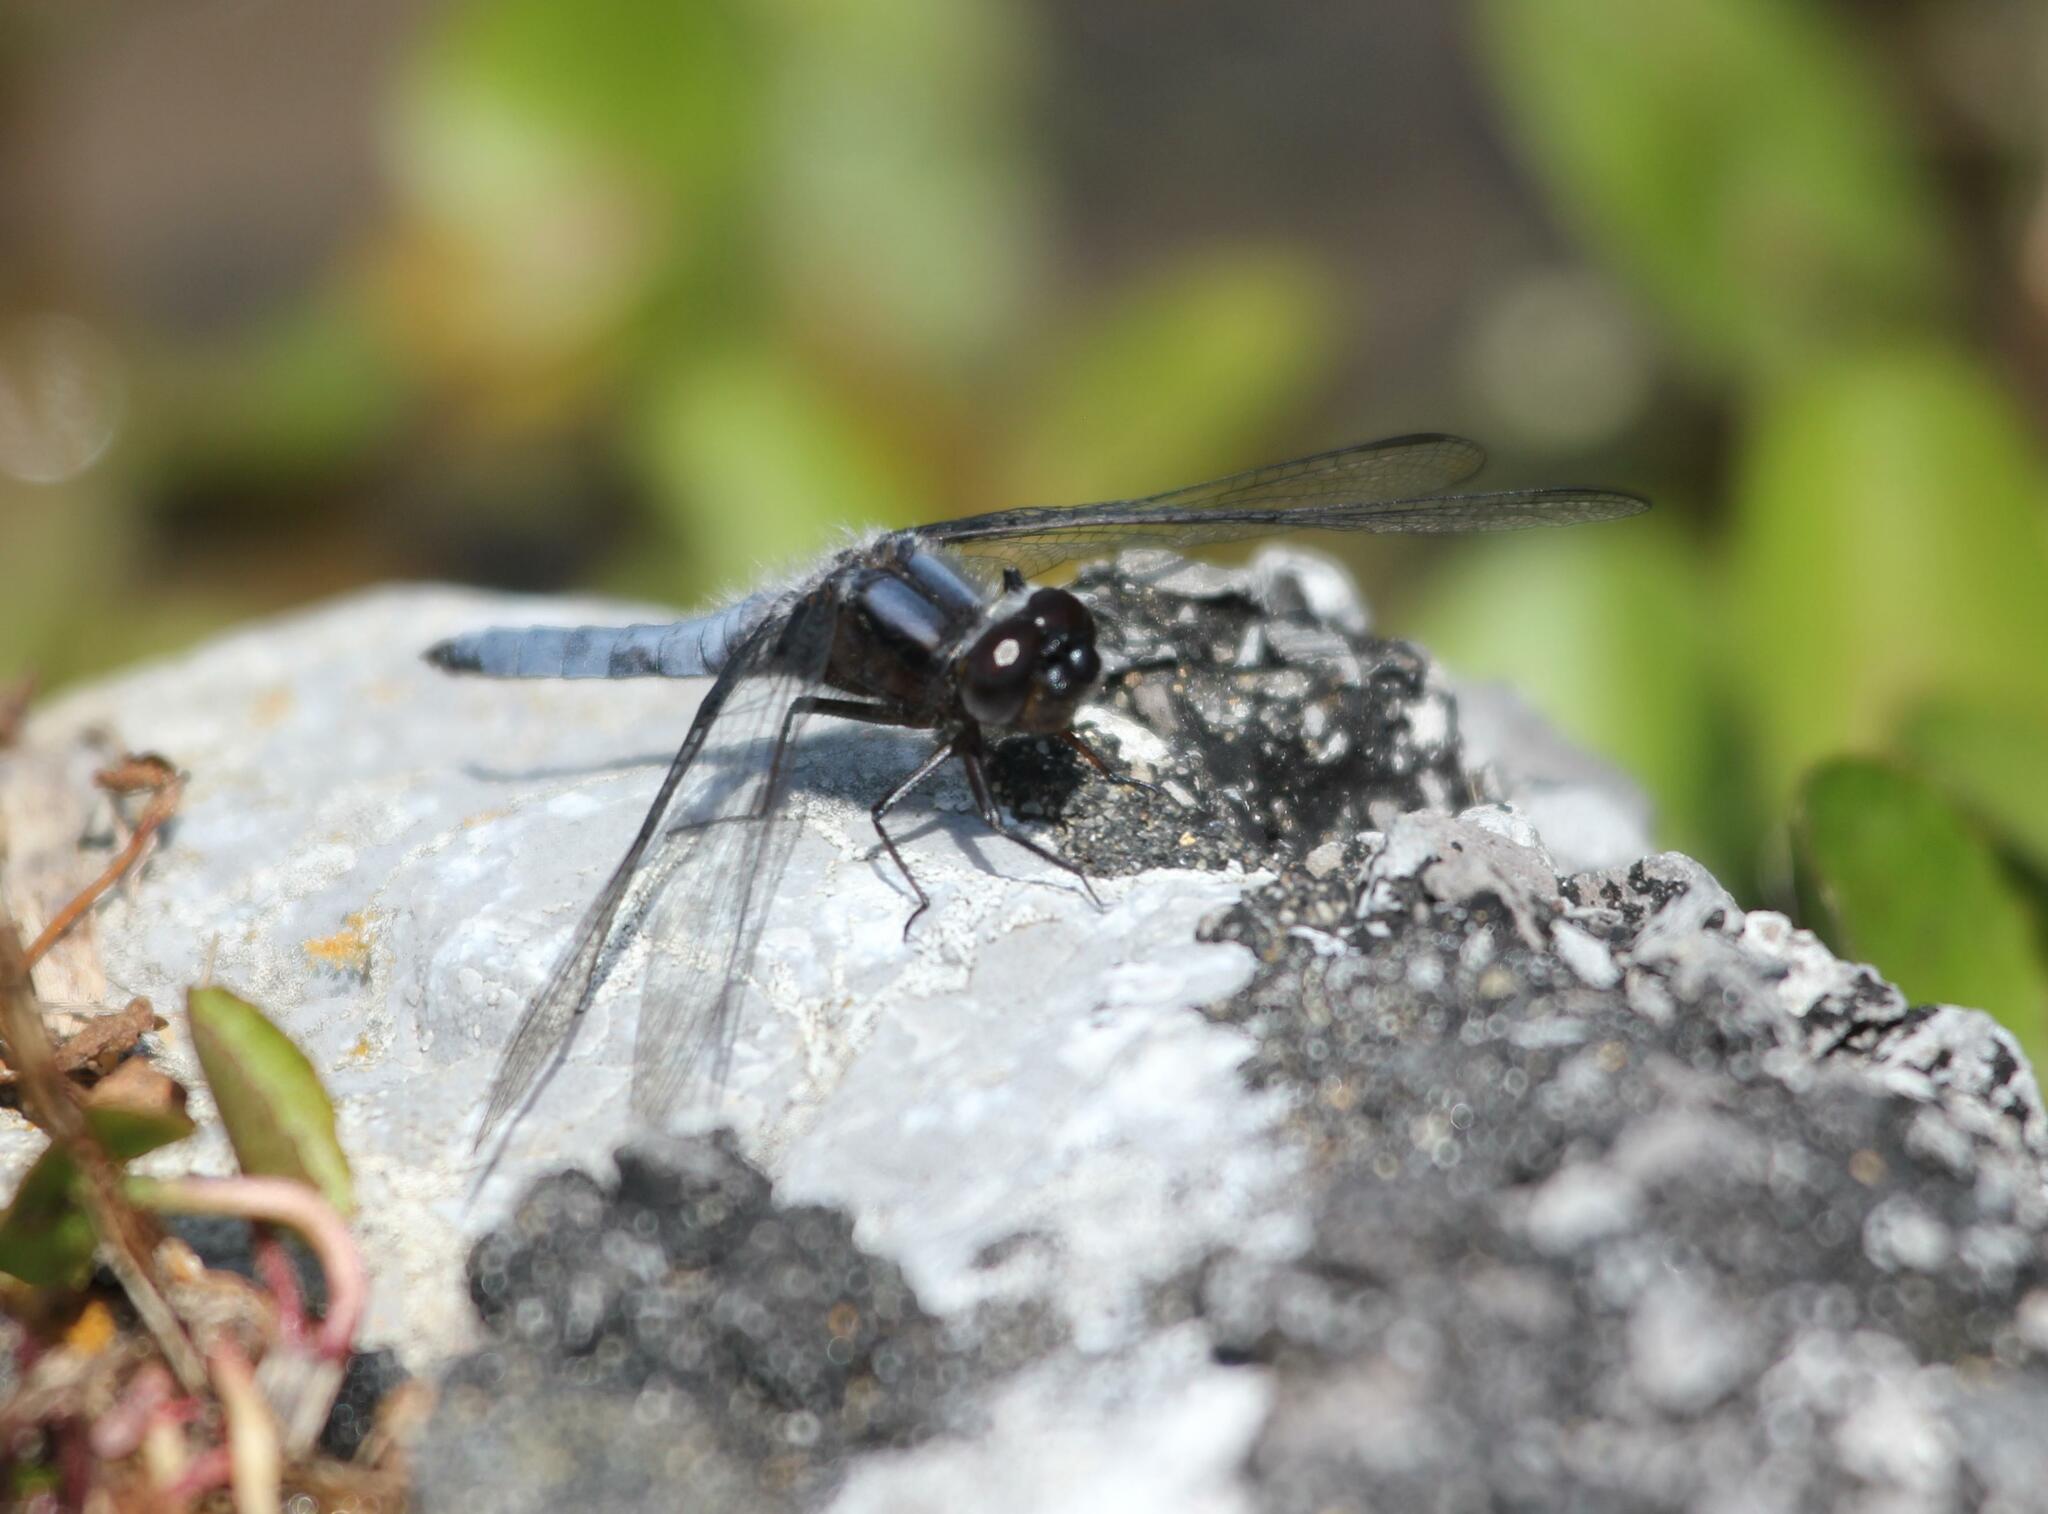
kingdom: Animalia
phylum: Arthropoda
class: Insecta
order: Odonata
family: Libellulidae
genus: Ladona
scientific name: Ladona deplanata
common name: Blue corporal
